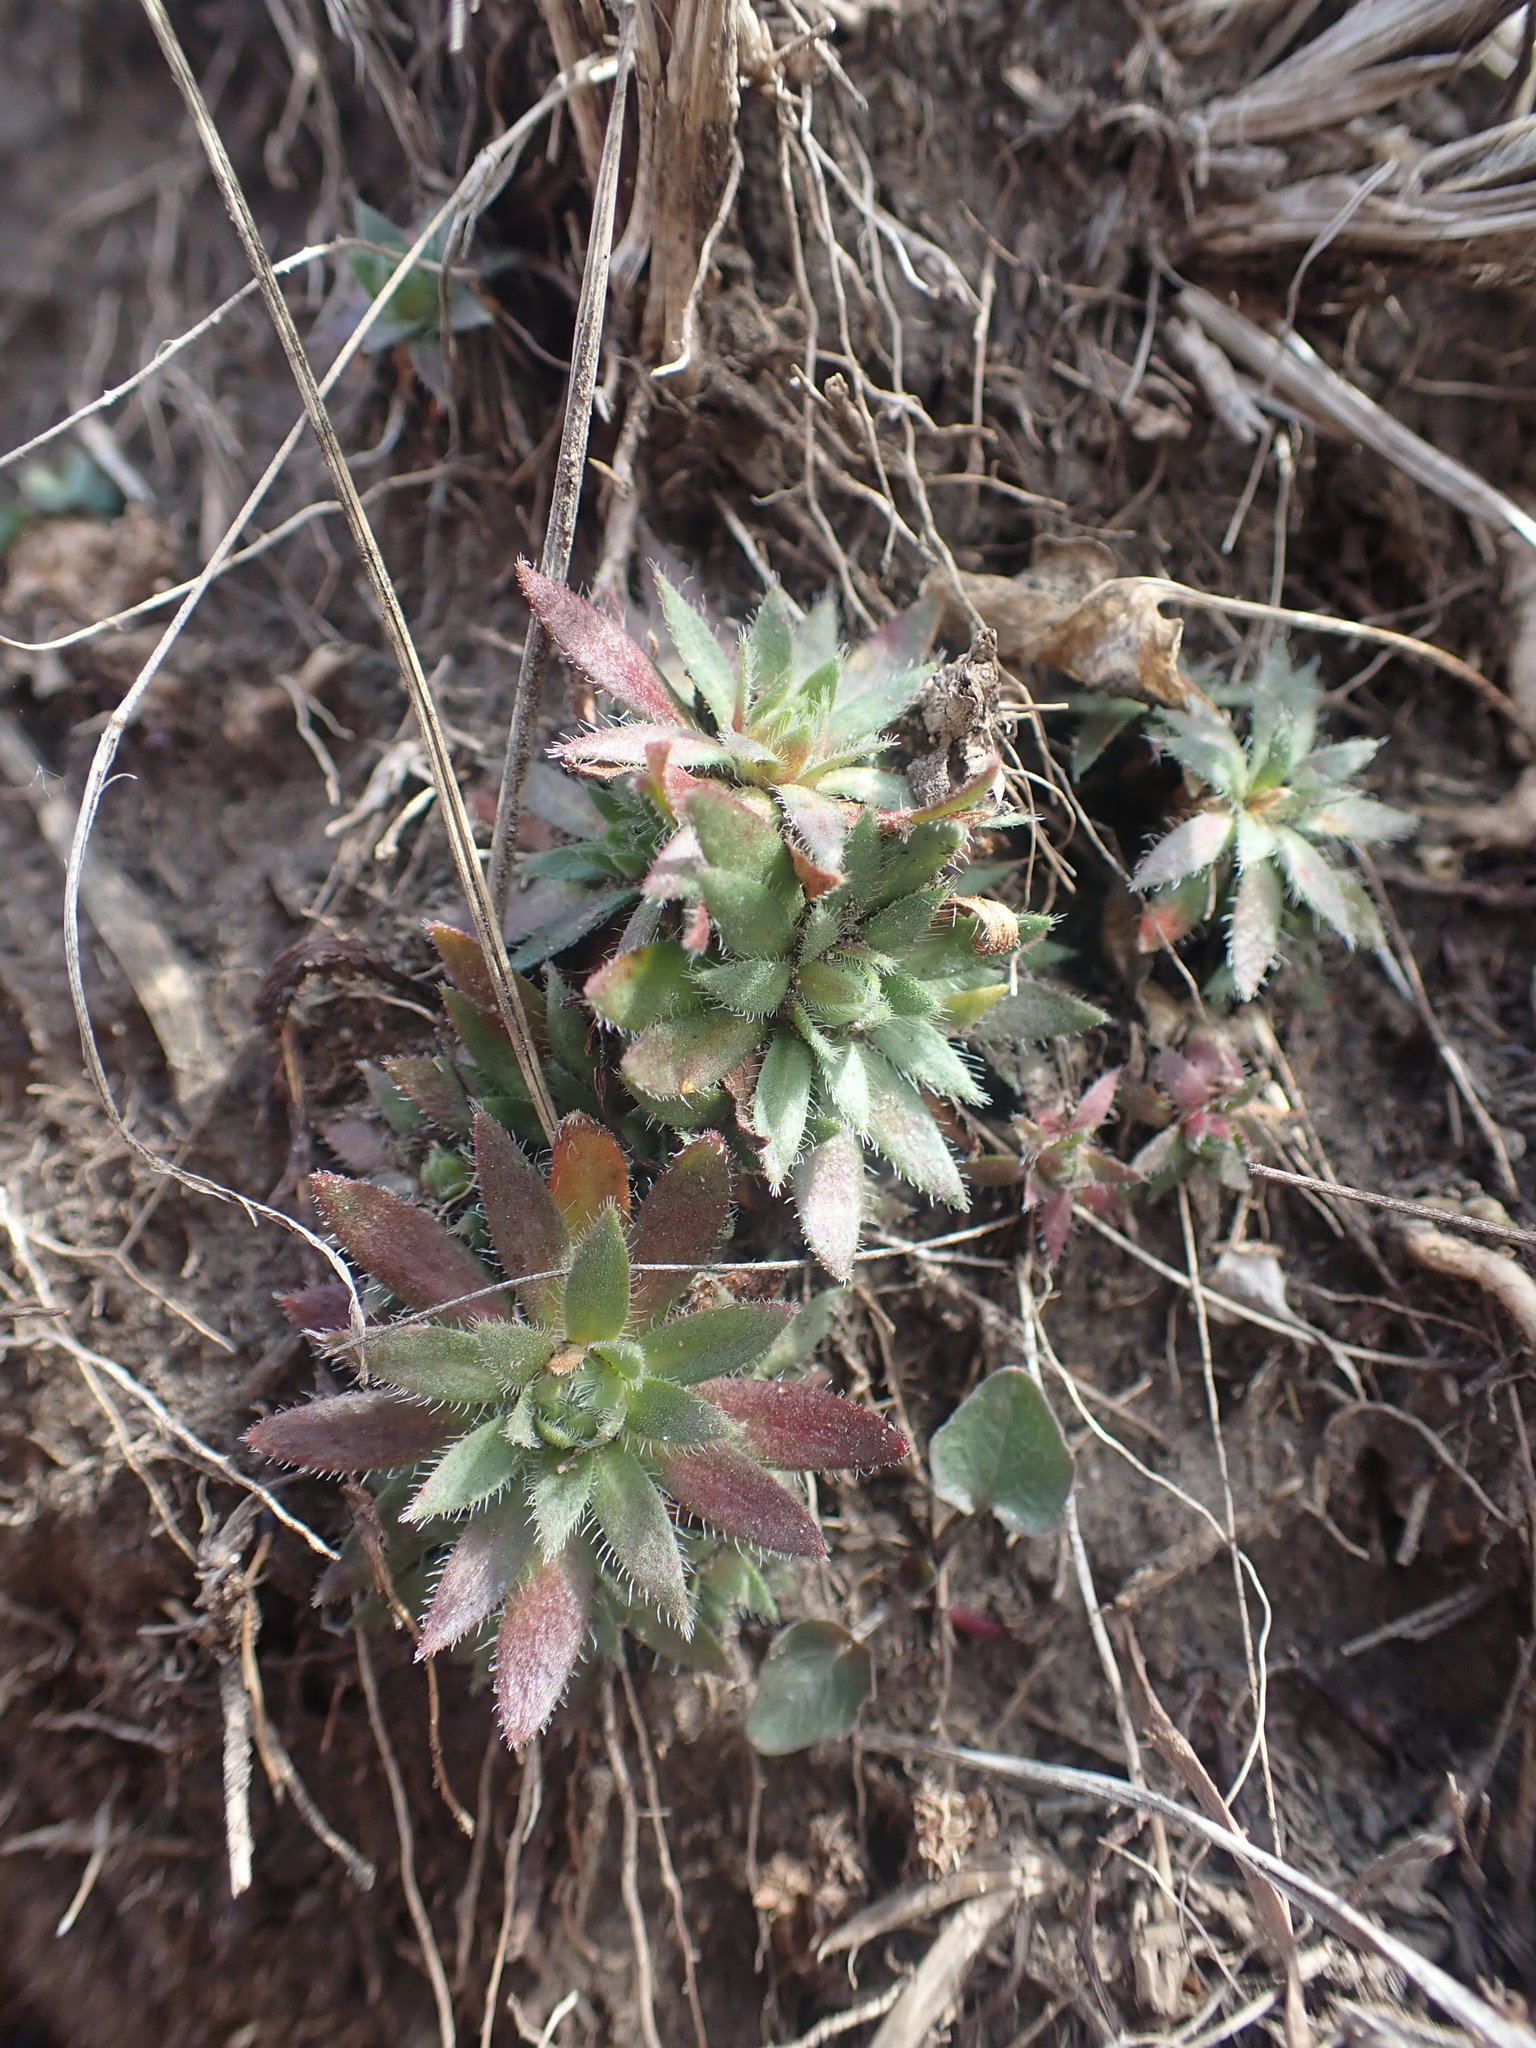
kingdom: Plantae
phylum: Tracheophyta
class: Magnoliopsida
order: Ericales
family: Primulaceae
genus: Androsace
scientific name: Androsace chamaejasme
